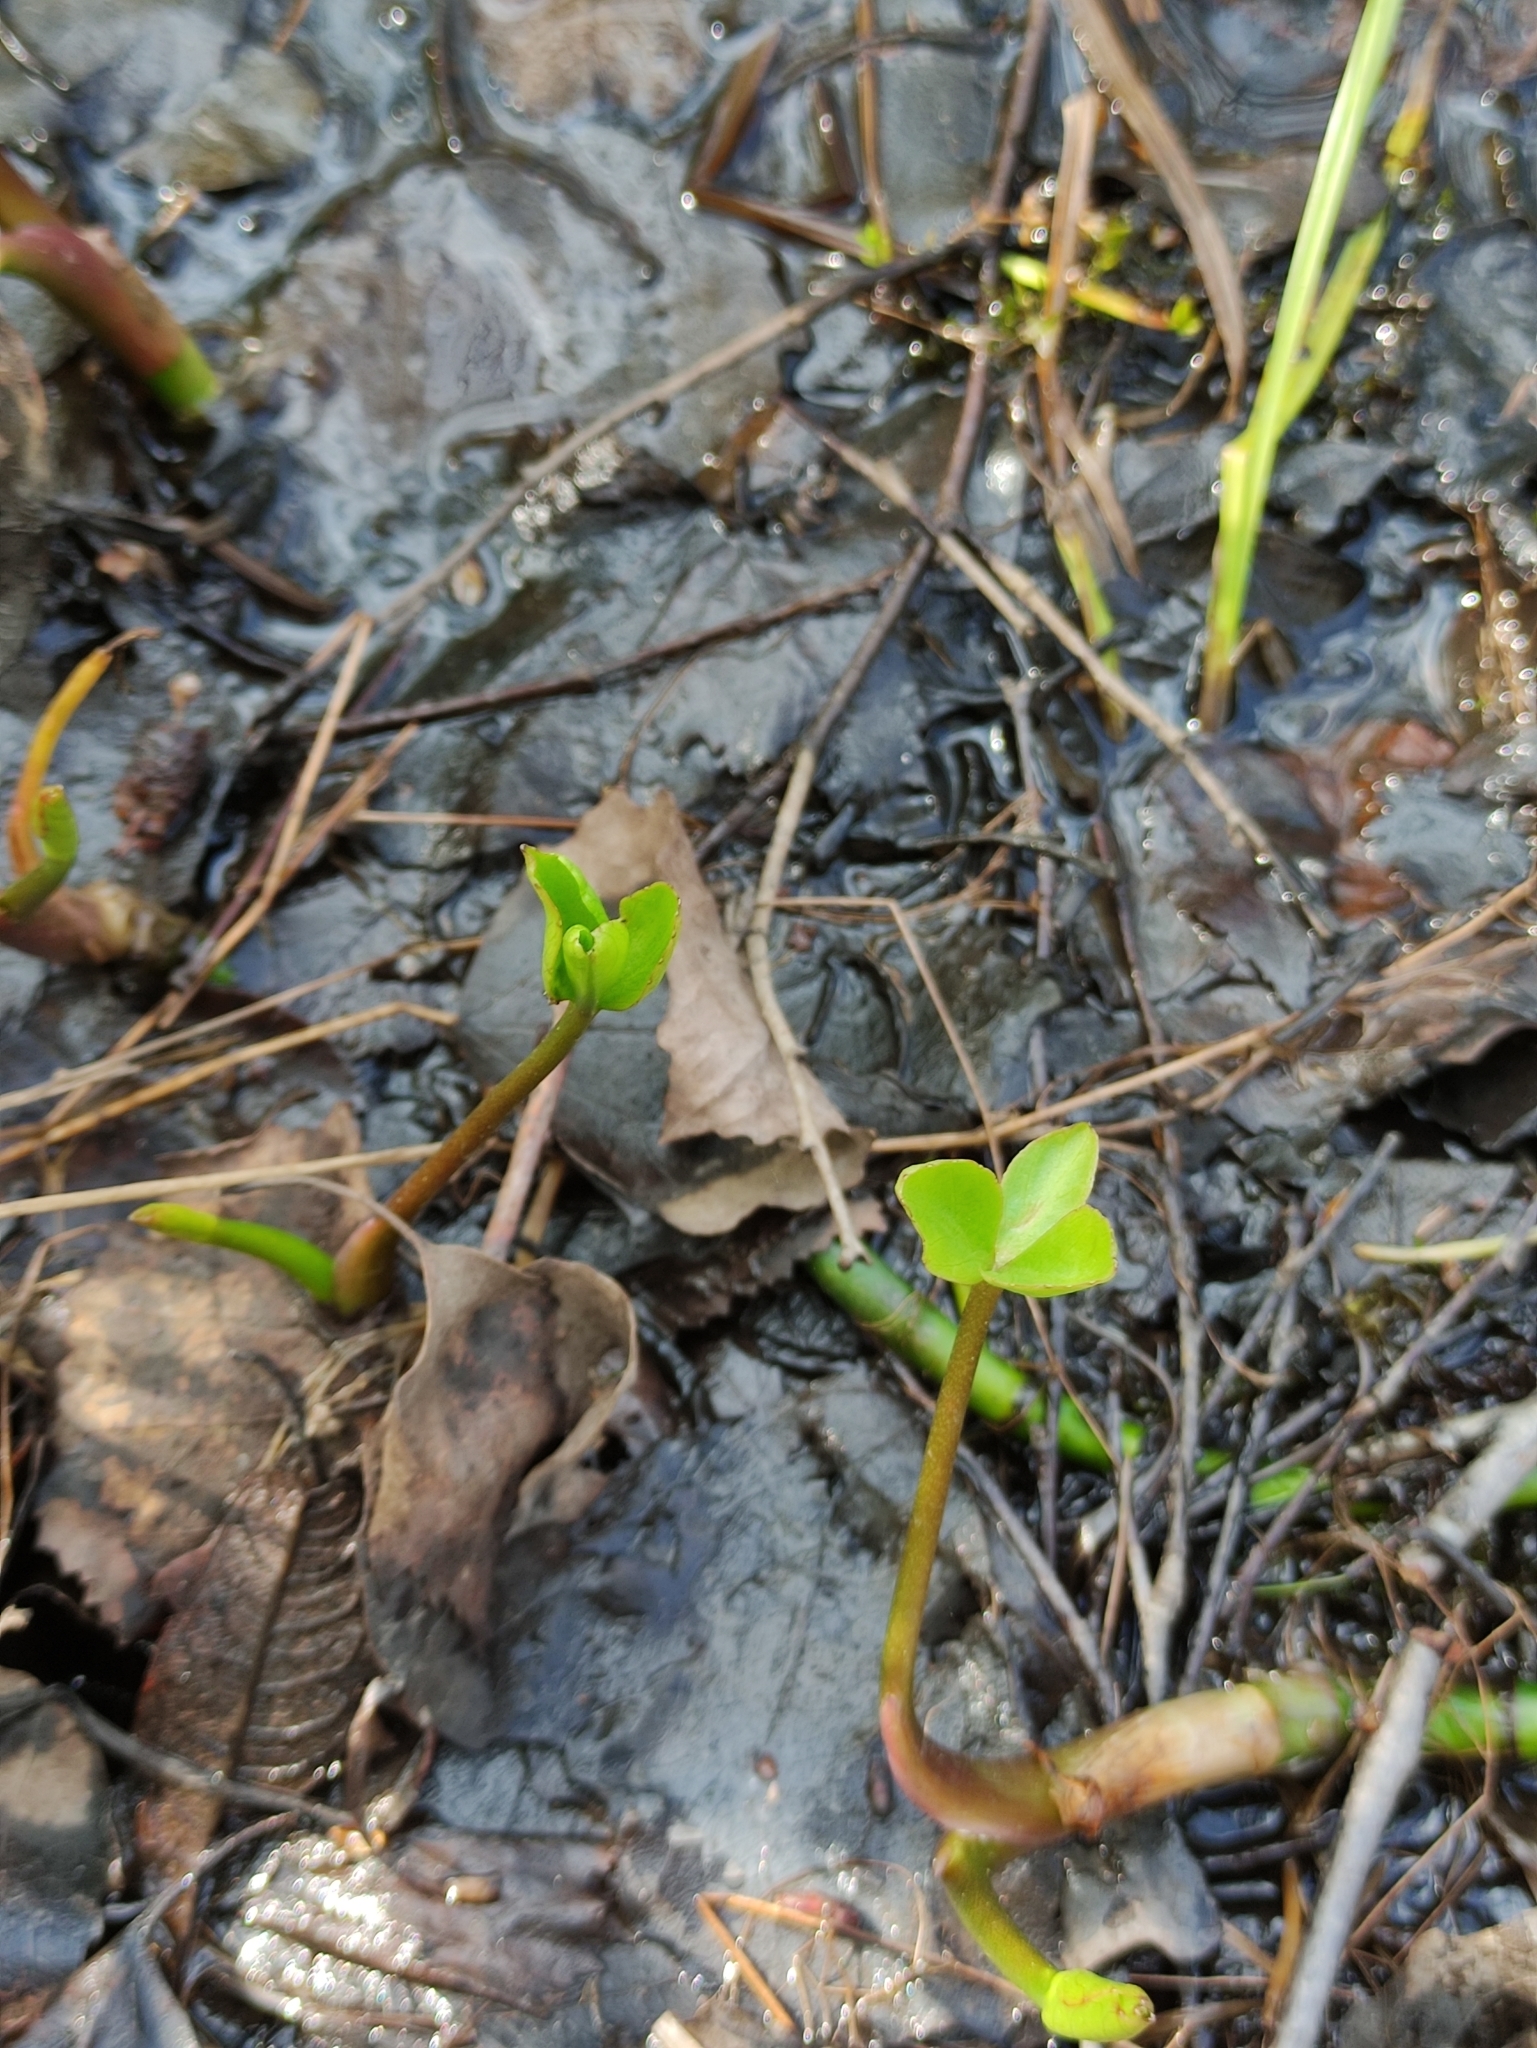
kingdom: Plantae
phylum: Tracheophyta
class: Magnoliopsida
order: Asterales
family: Menyanthaceae
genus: Menyanthes
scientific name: Menyanthes trifoliata
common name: Bogbean
